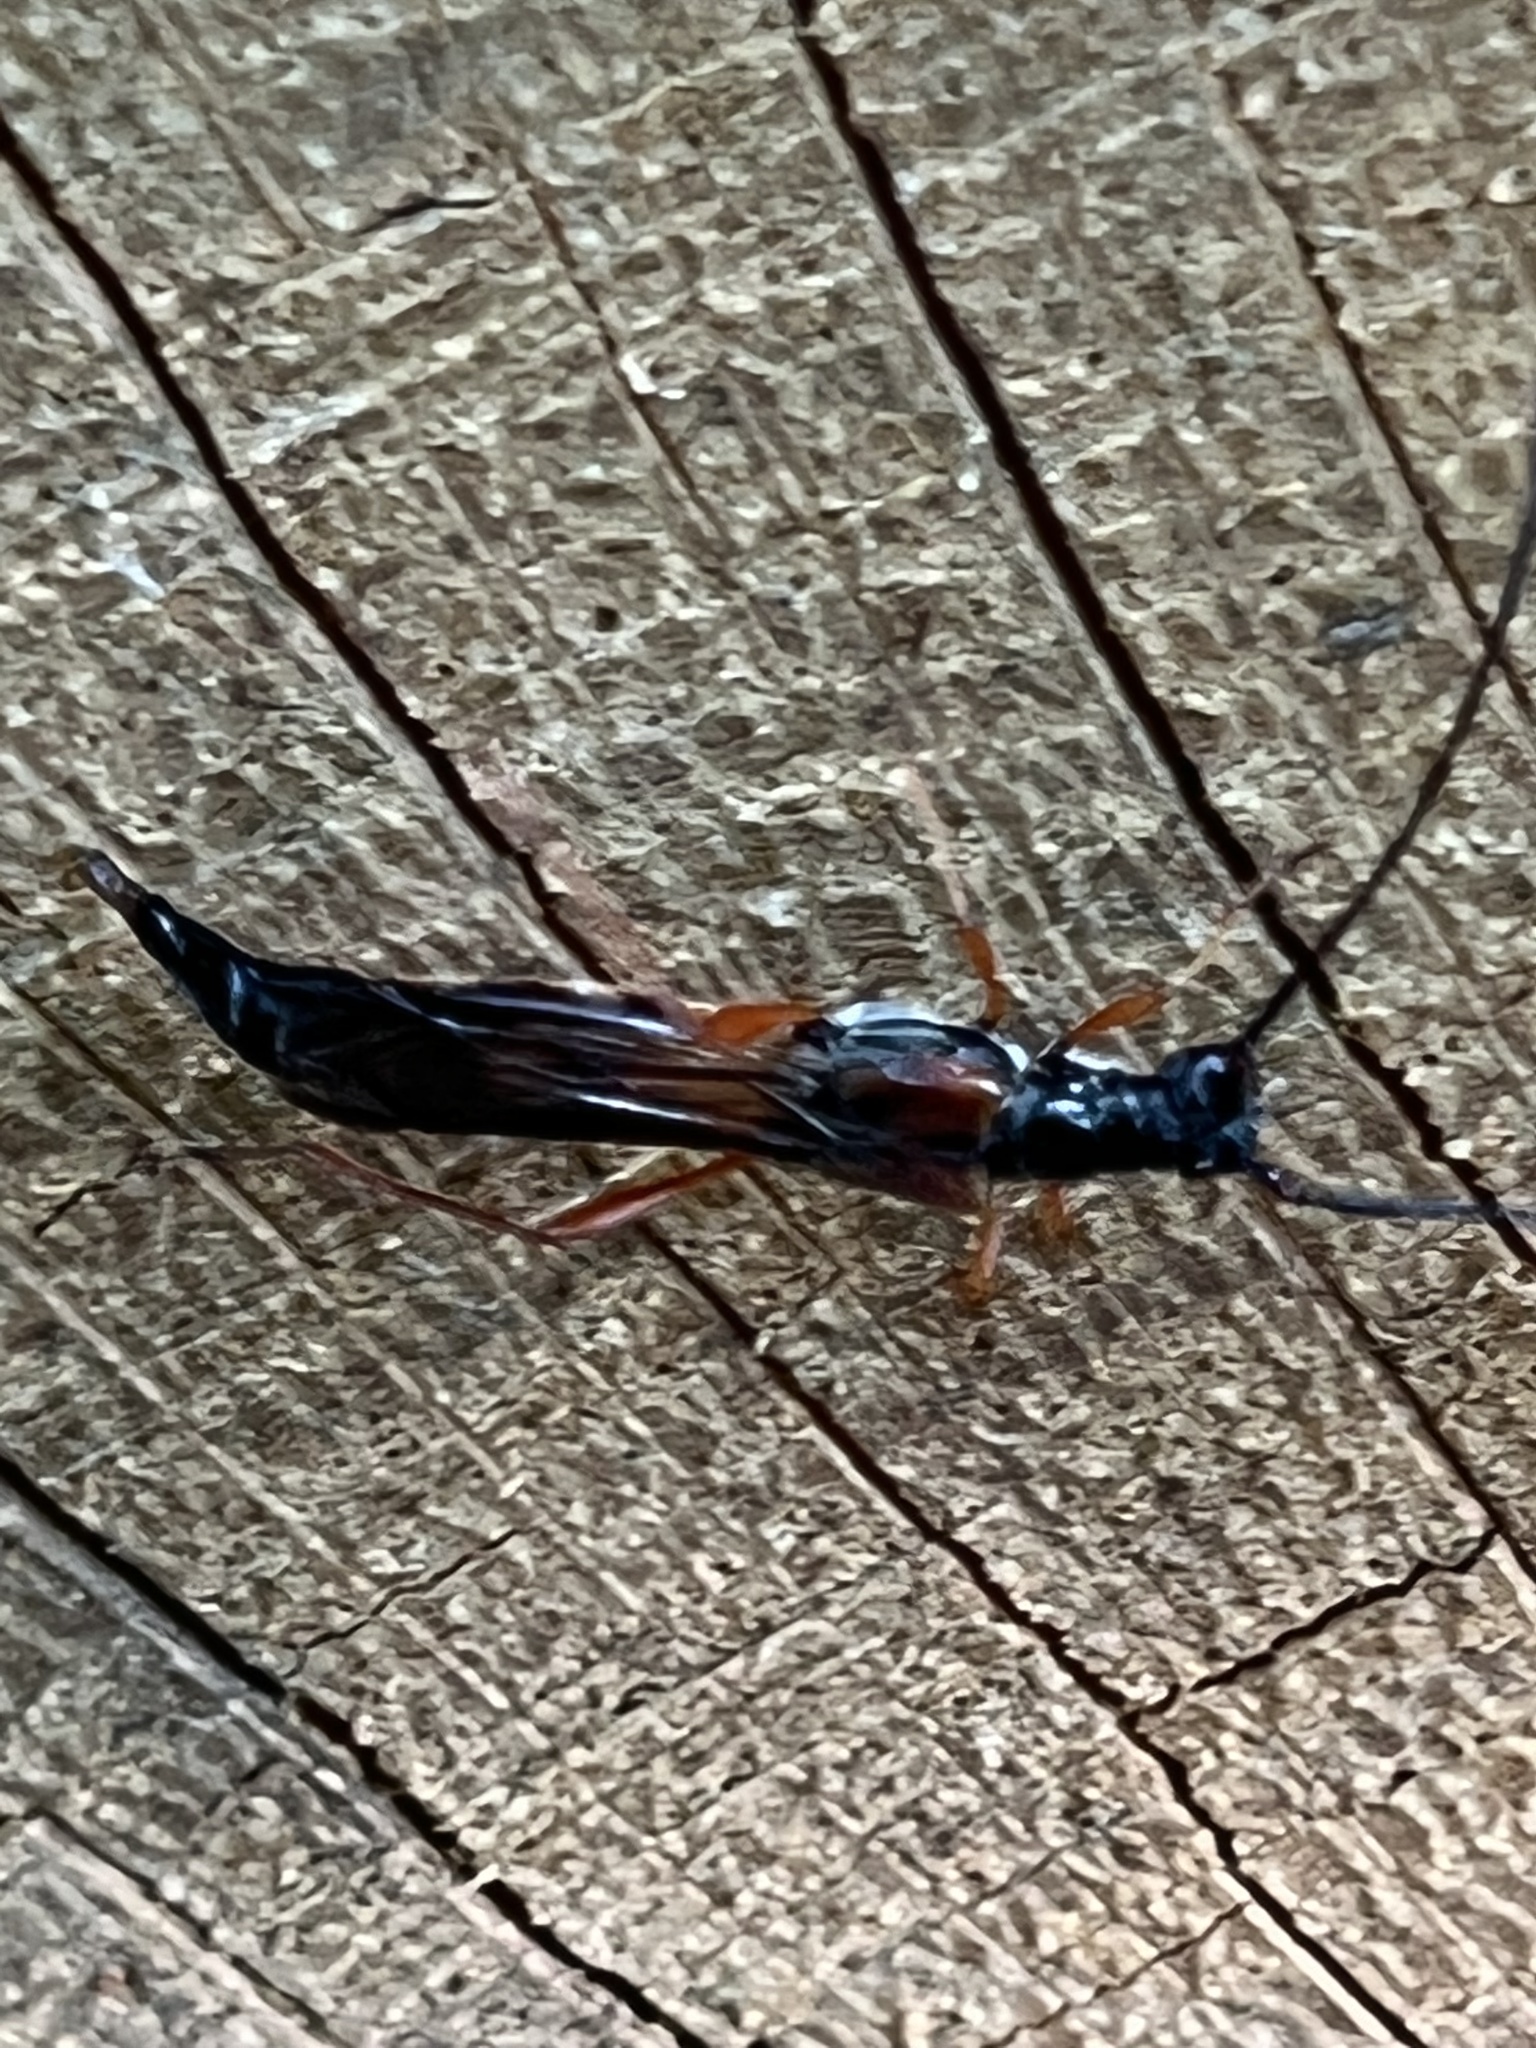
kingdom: Animalia
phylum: Arthropoda
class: Insecta
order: Coleoptera
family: Cerambycidae
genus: Necydalis
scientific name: Necydalis mellita
